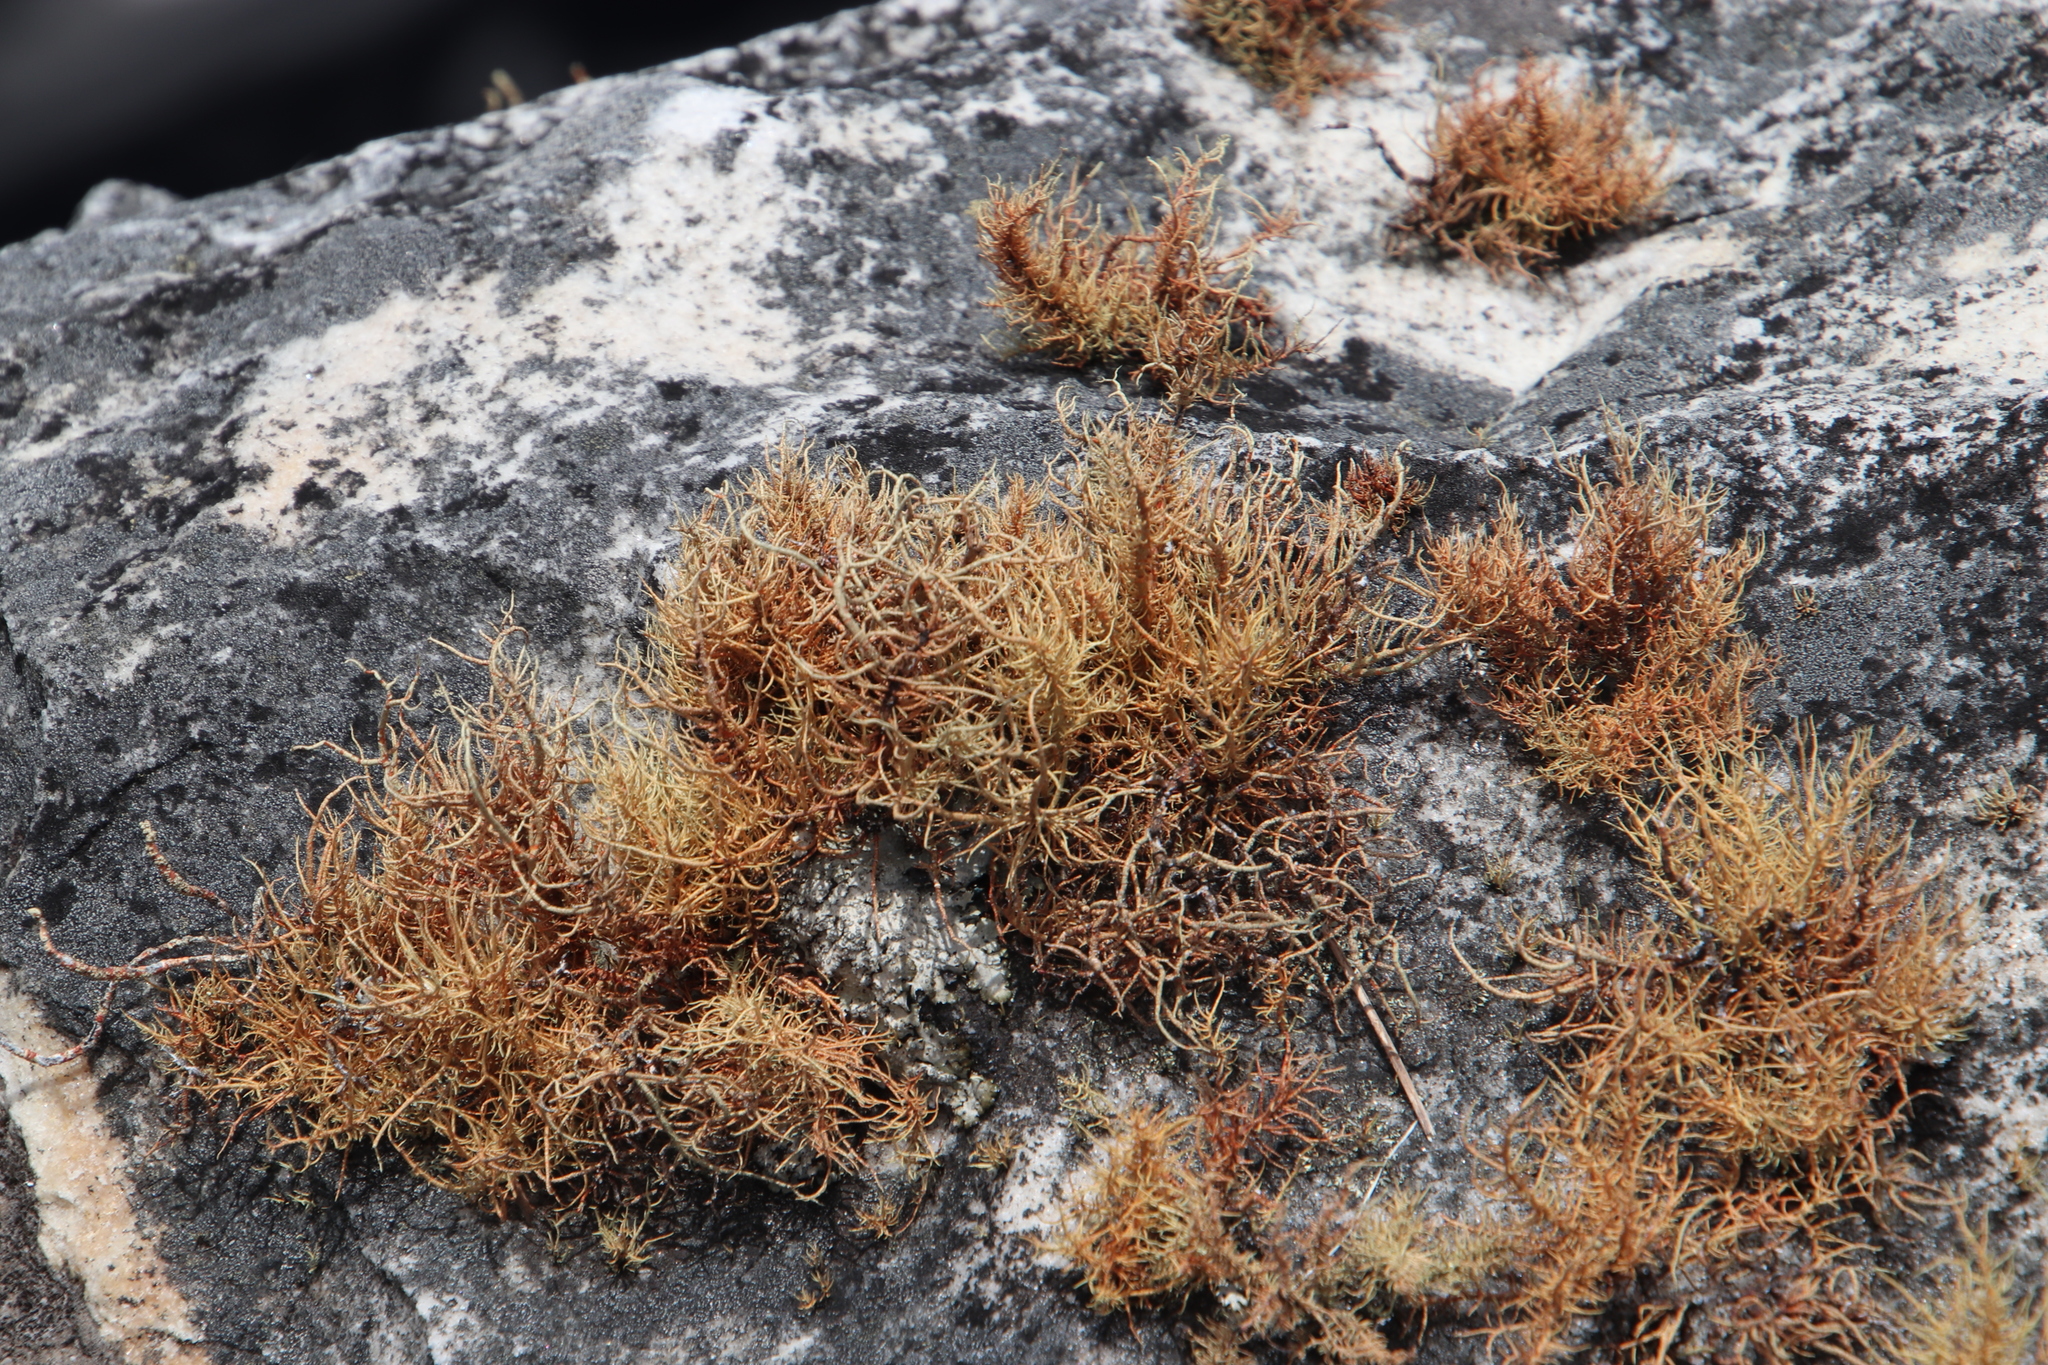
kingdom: Fungi
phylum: Ascomycota
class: Lecanoromycetes
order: Lecanorales
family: Parmeliaceae
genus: Usnea
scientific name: Usnea maculata
